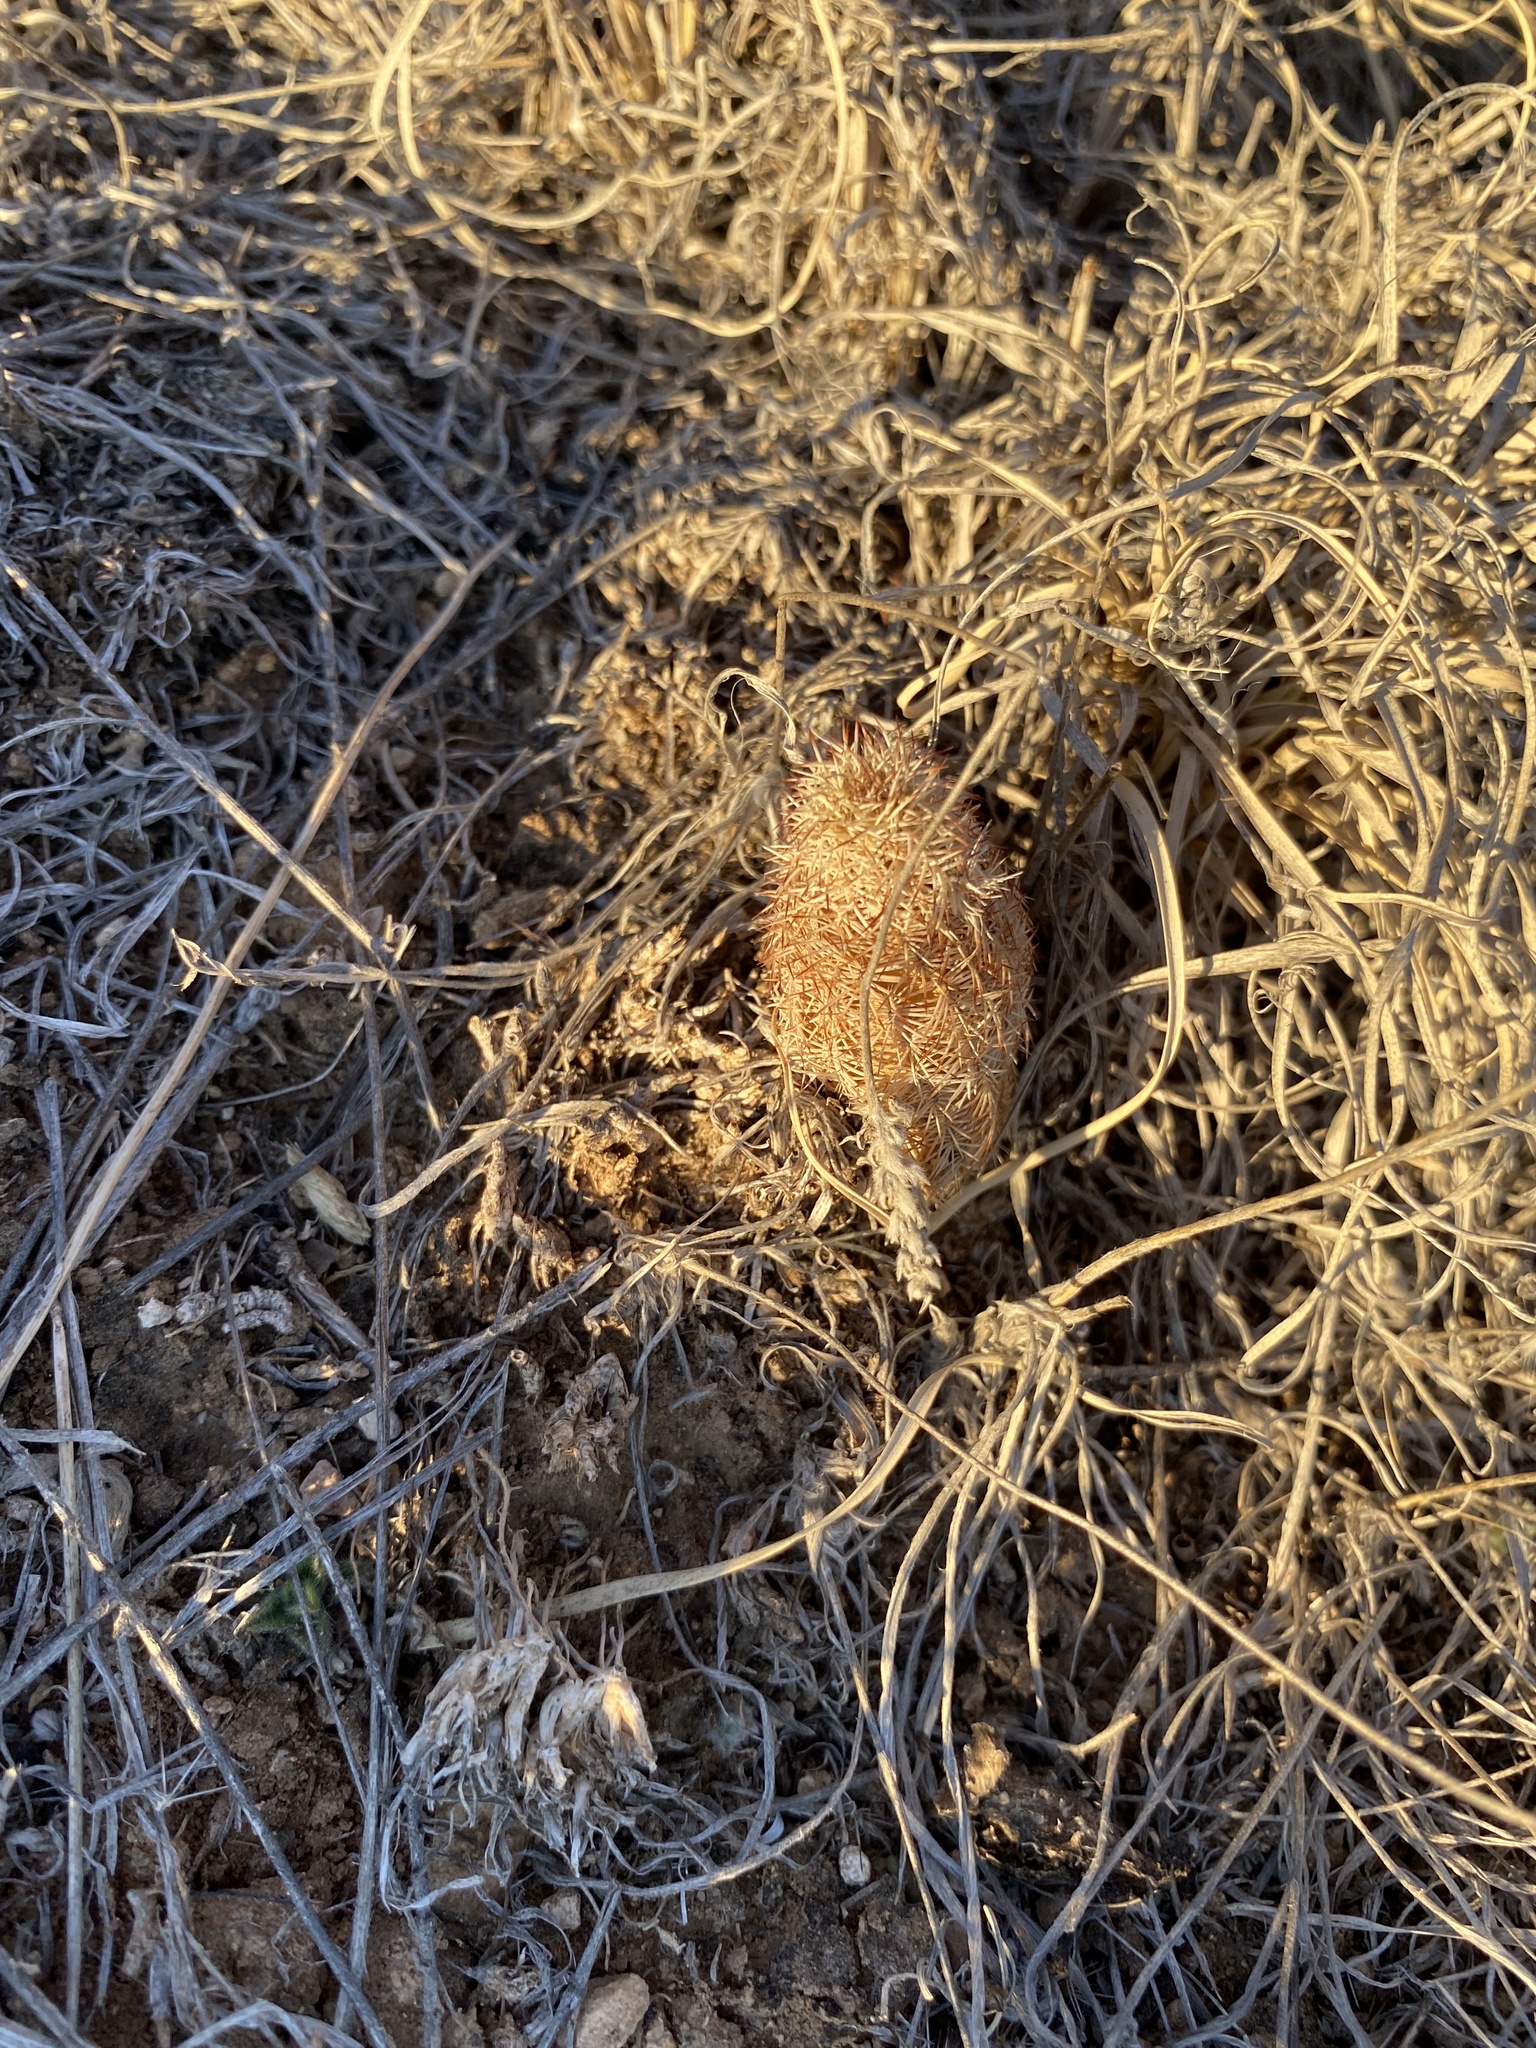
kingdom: Plantae
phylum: Tracheophyta
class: Magnoliopsida
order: Caryophyllales
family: Cactaceae
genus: Echinocereus
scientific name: Echinocereus reichenbachii
